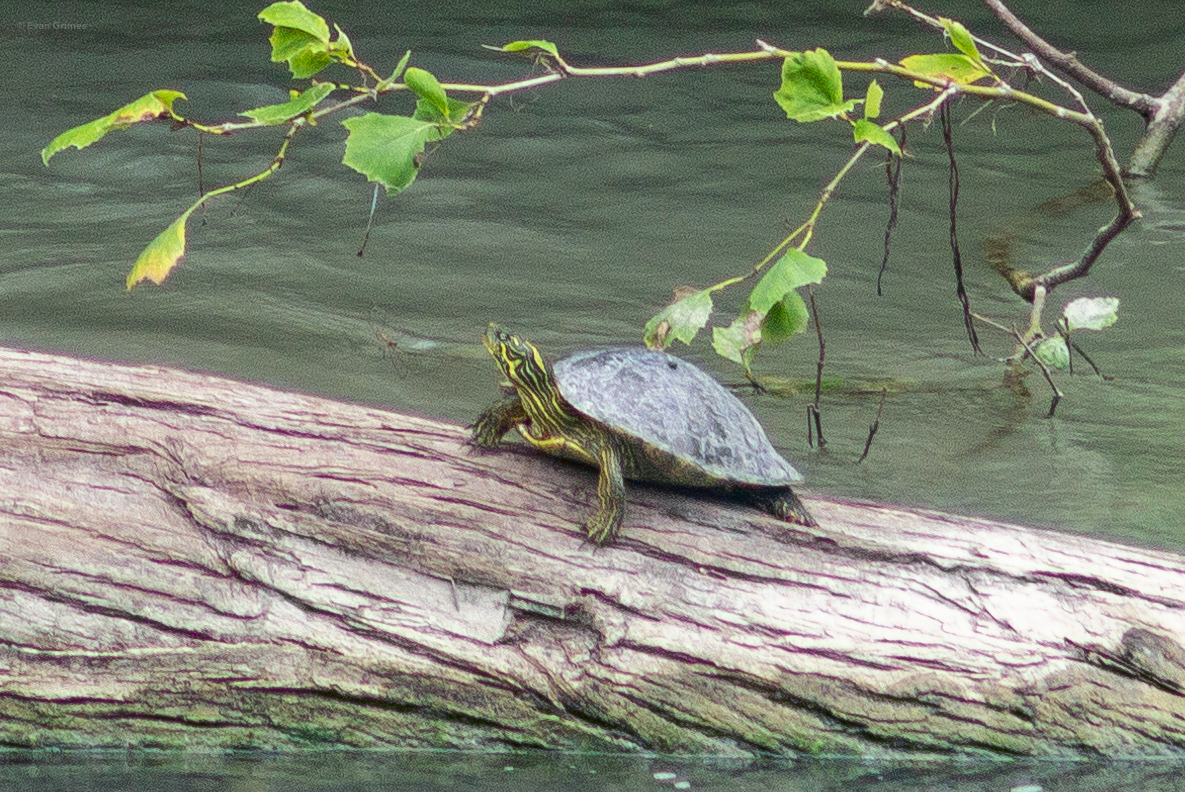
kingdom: Animalia
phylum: Chordata
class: Testudines
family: Emydidae
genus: Pseudemys
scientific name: Pseudemys texana
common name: Texas river cooter
